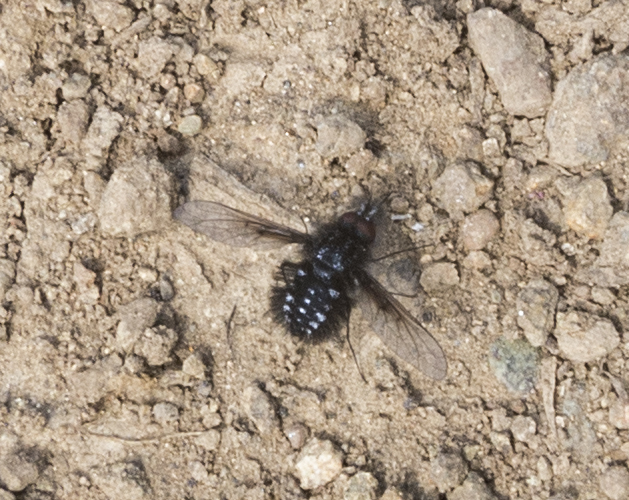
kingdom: Animalia
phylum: Arthropoda
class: Insecta
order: Diptera
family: Bombyliidae
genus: Bombylella
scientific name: Bombylella atra
